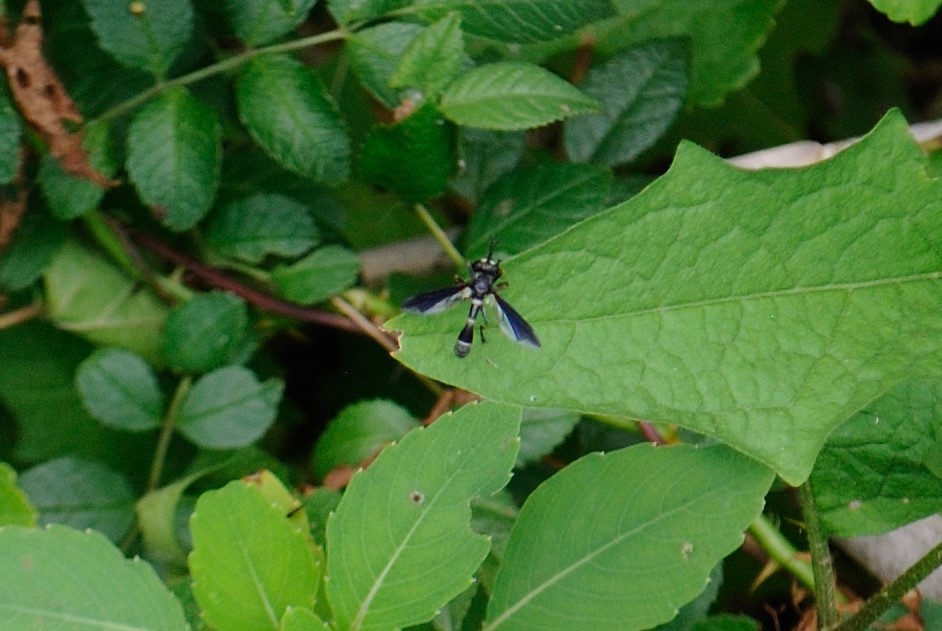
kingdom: Animalia
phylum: Arthropoda
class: Insecta
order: Diptera
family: Conopidae
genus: Physocephala
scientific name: Physocephala tibialis
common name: Common eastern physocephala
